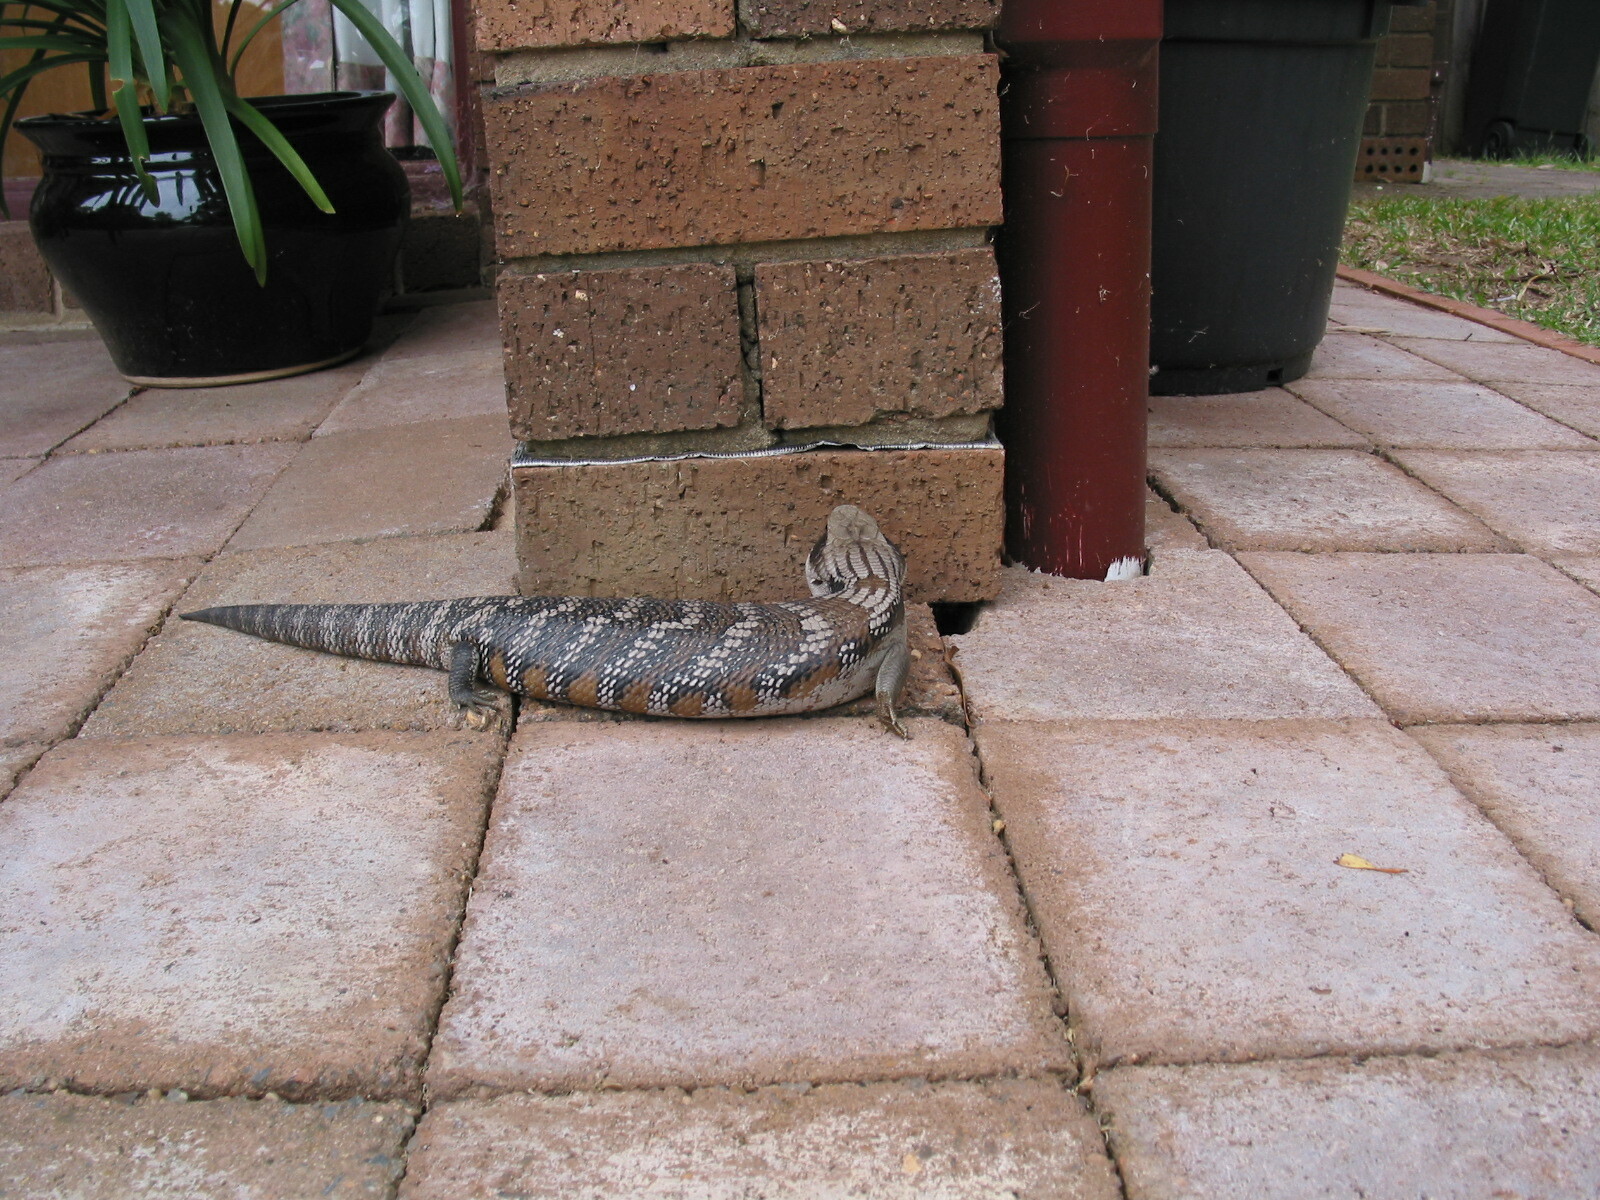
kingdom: Animalia
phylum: Chordata
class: Squamata
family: Scincidae
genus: Tiliqua
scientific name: Tiliqua scincoides
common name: Common bluetongue
